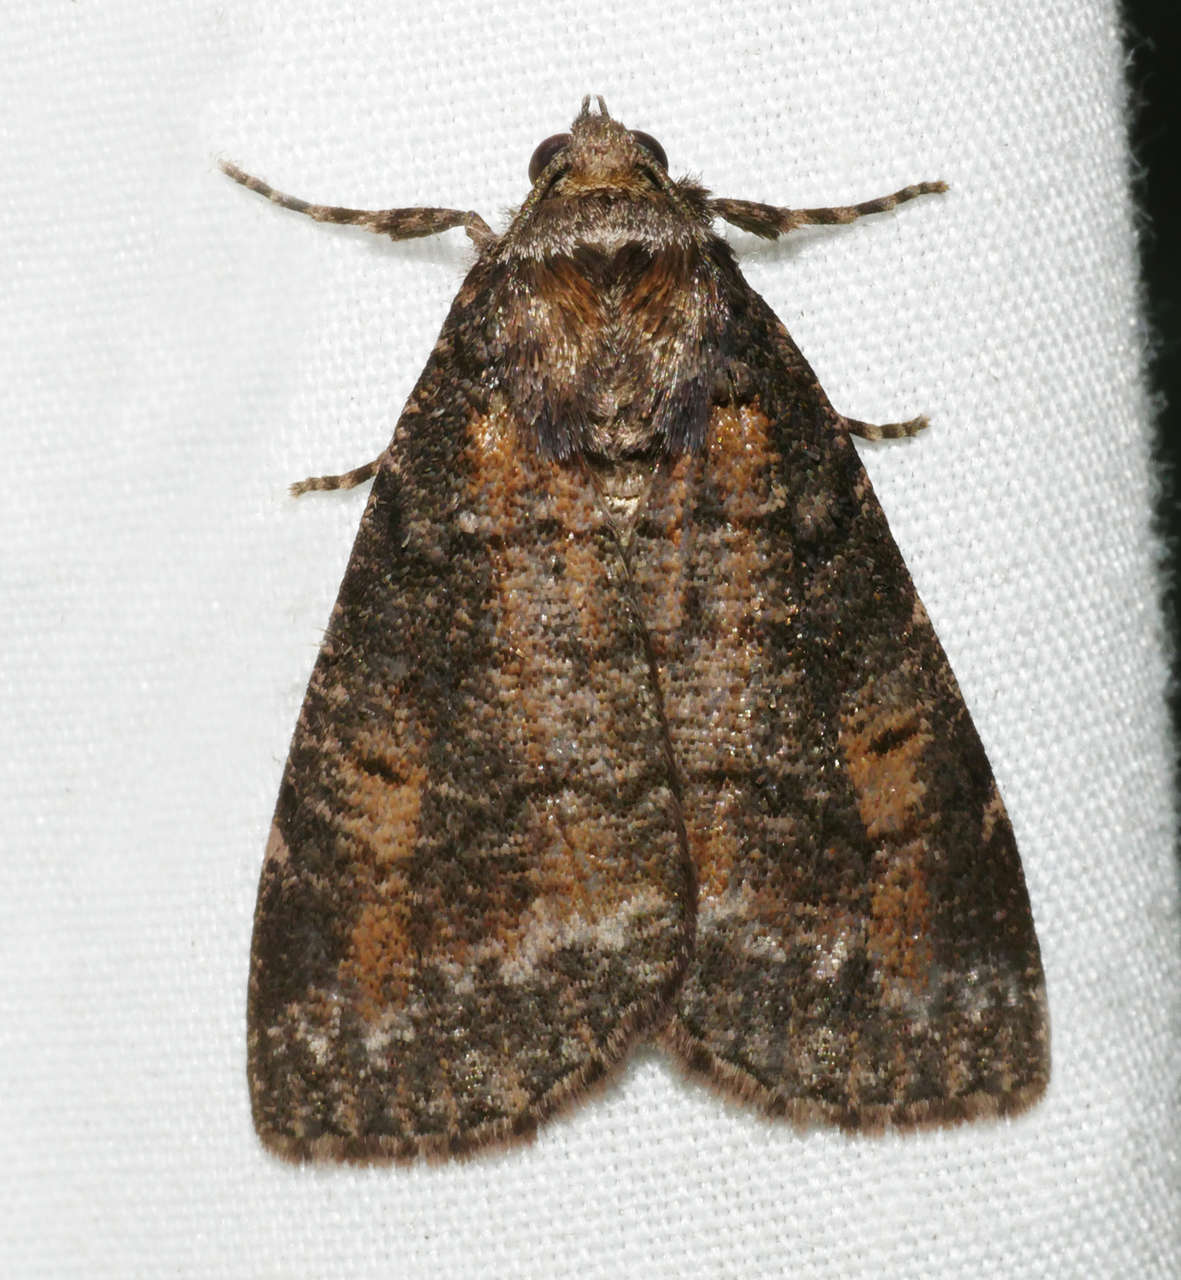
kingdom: Animalia
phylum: Arthropoda
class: Insecta
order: Lepidoptera
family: Geometridae
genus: Smyriodes
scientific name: Smyriodes aplectaria
